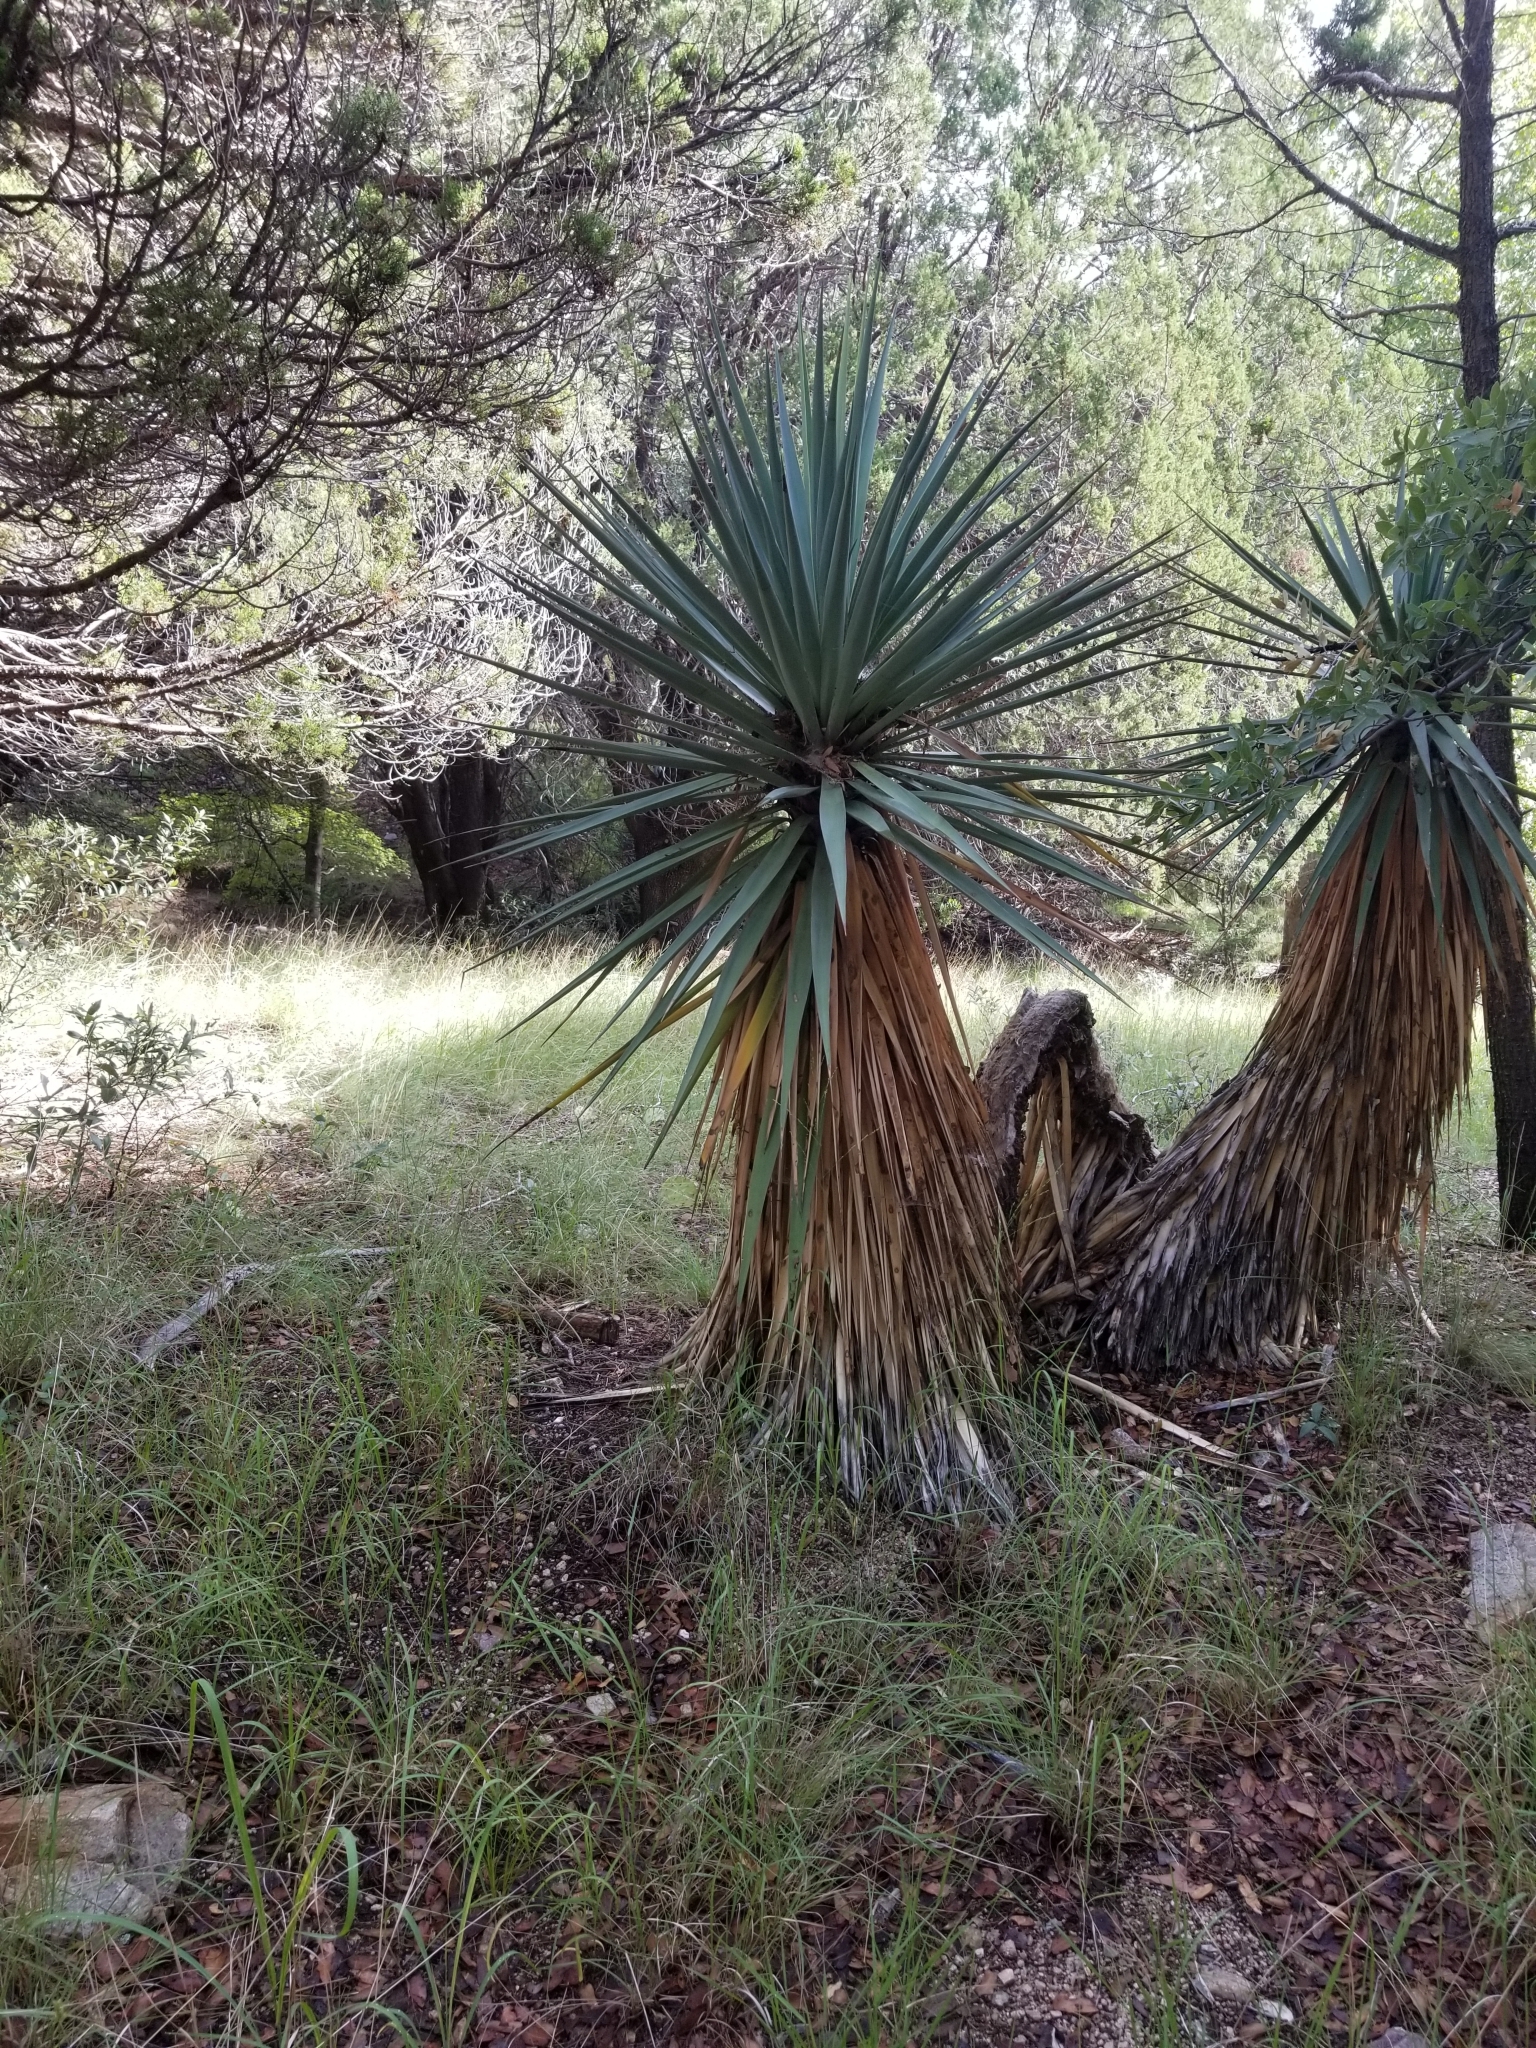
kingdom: Plantae
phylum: Tracheophyta
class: Liliopsida
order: Asparagales
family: Asparagaceae
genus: Yucca
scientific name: Yucca schottii
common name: Hoary yucca
